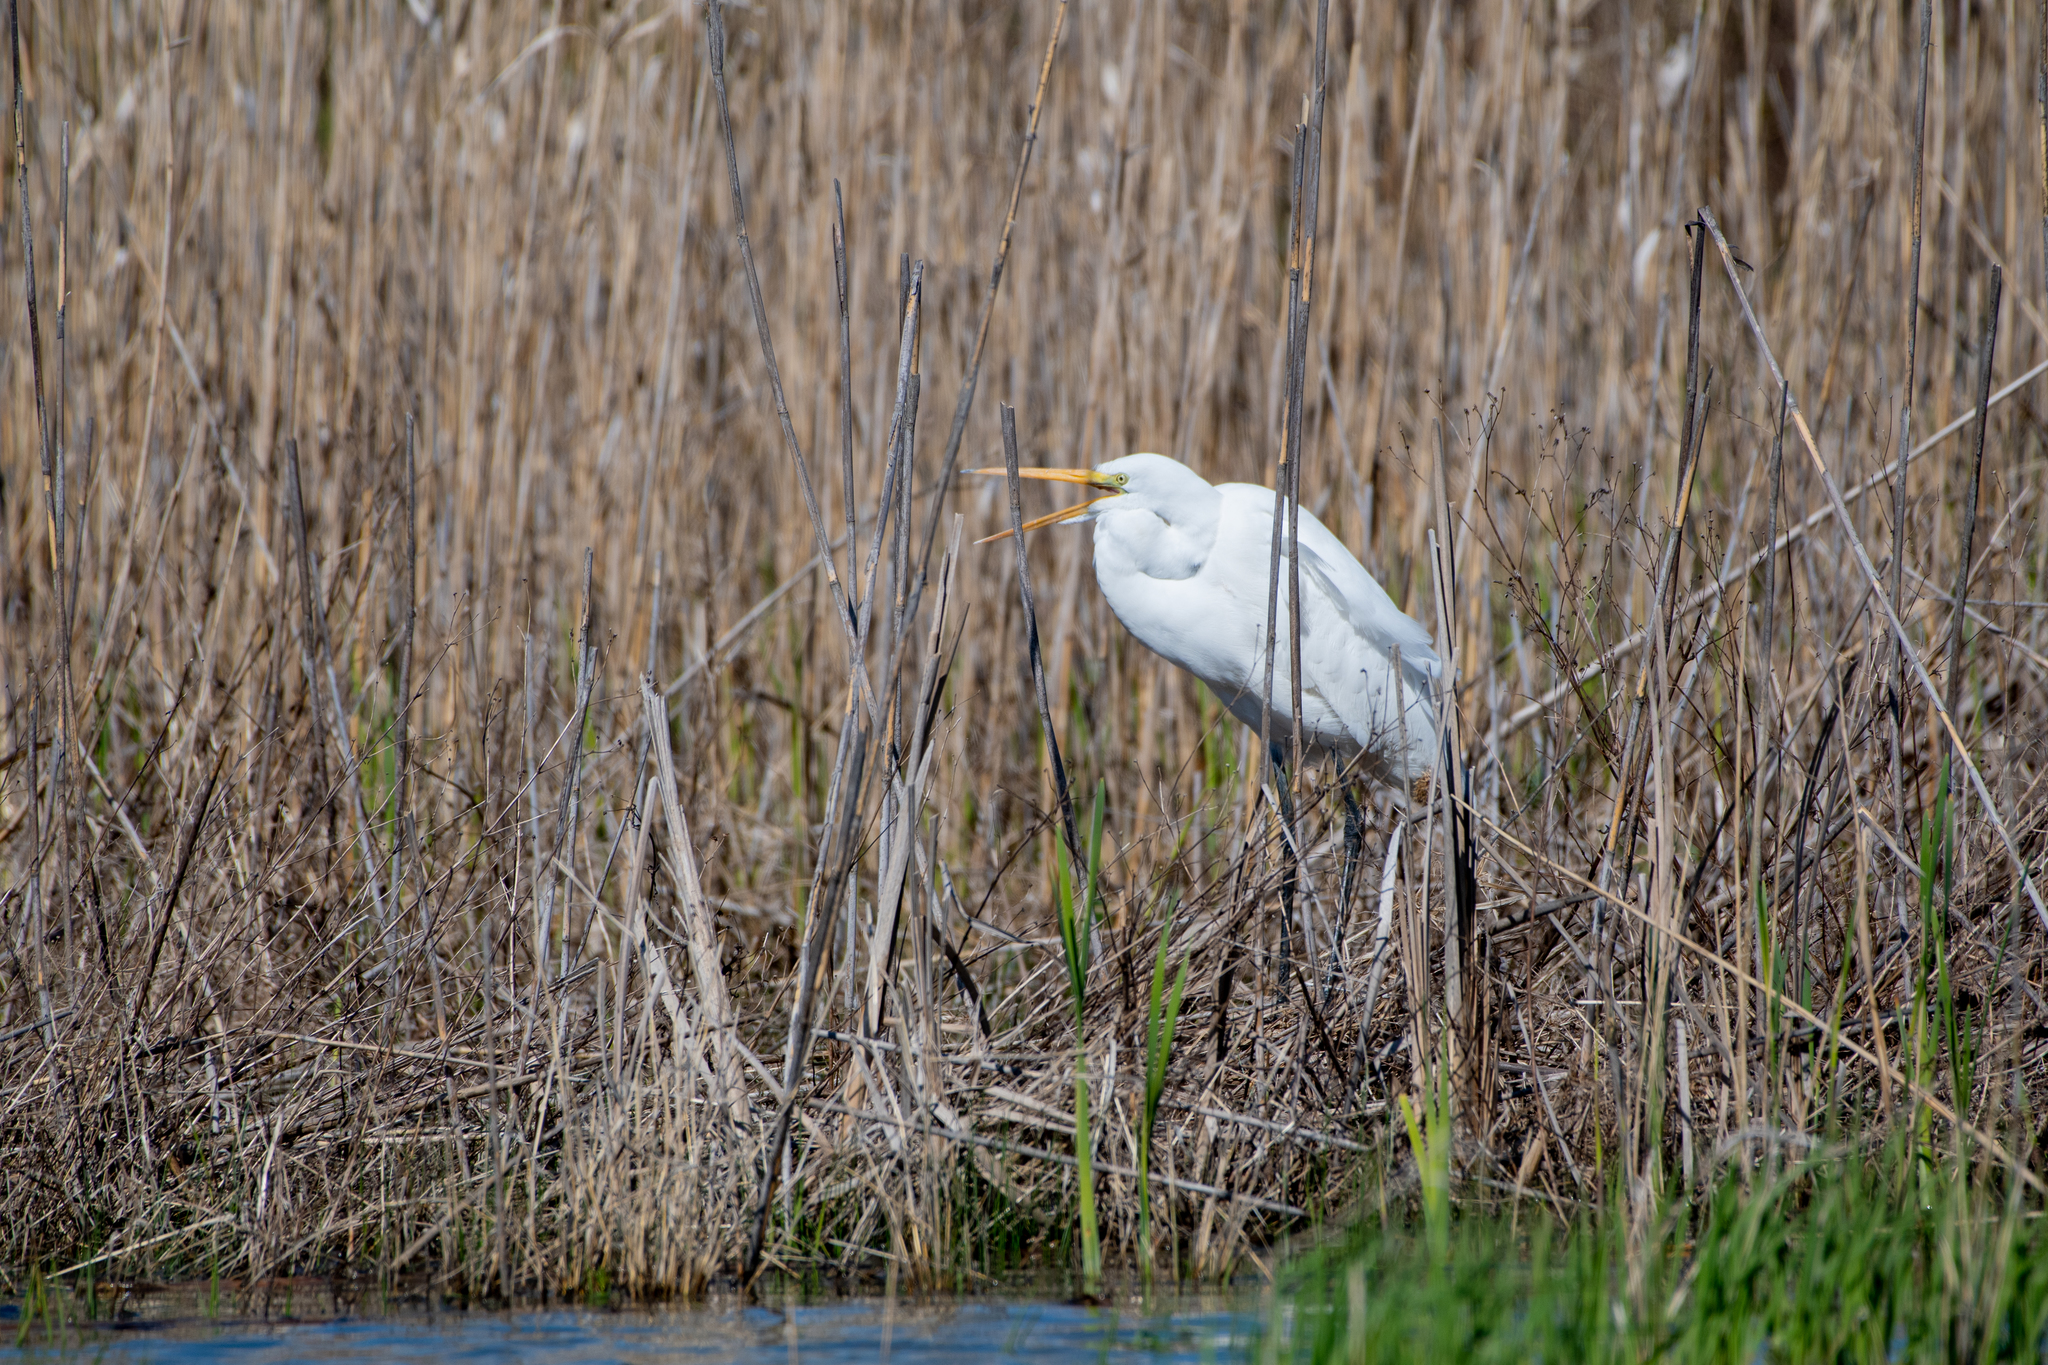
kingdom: Animalia
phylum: Chordata
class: Aves
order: Pelecaniformes
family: Ardeidae
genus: Ardea
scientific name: Ardea alba
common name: Great egret
